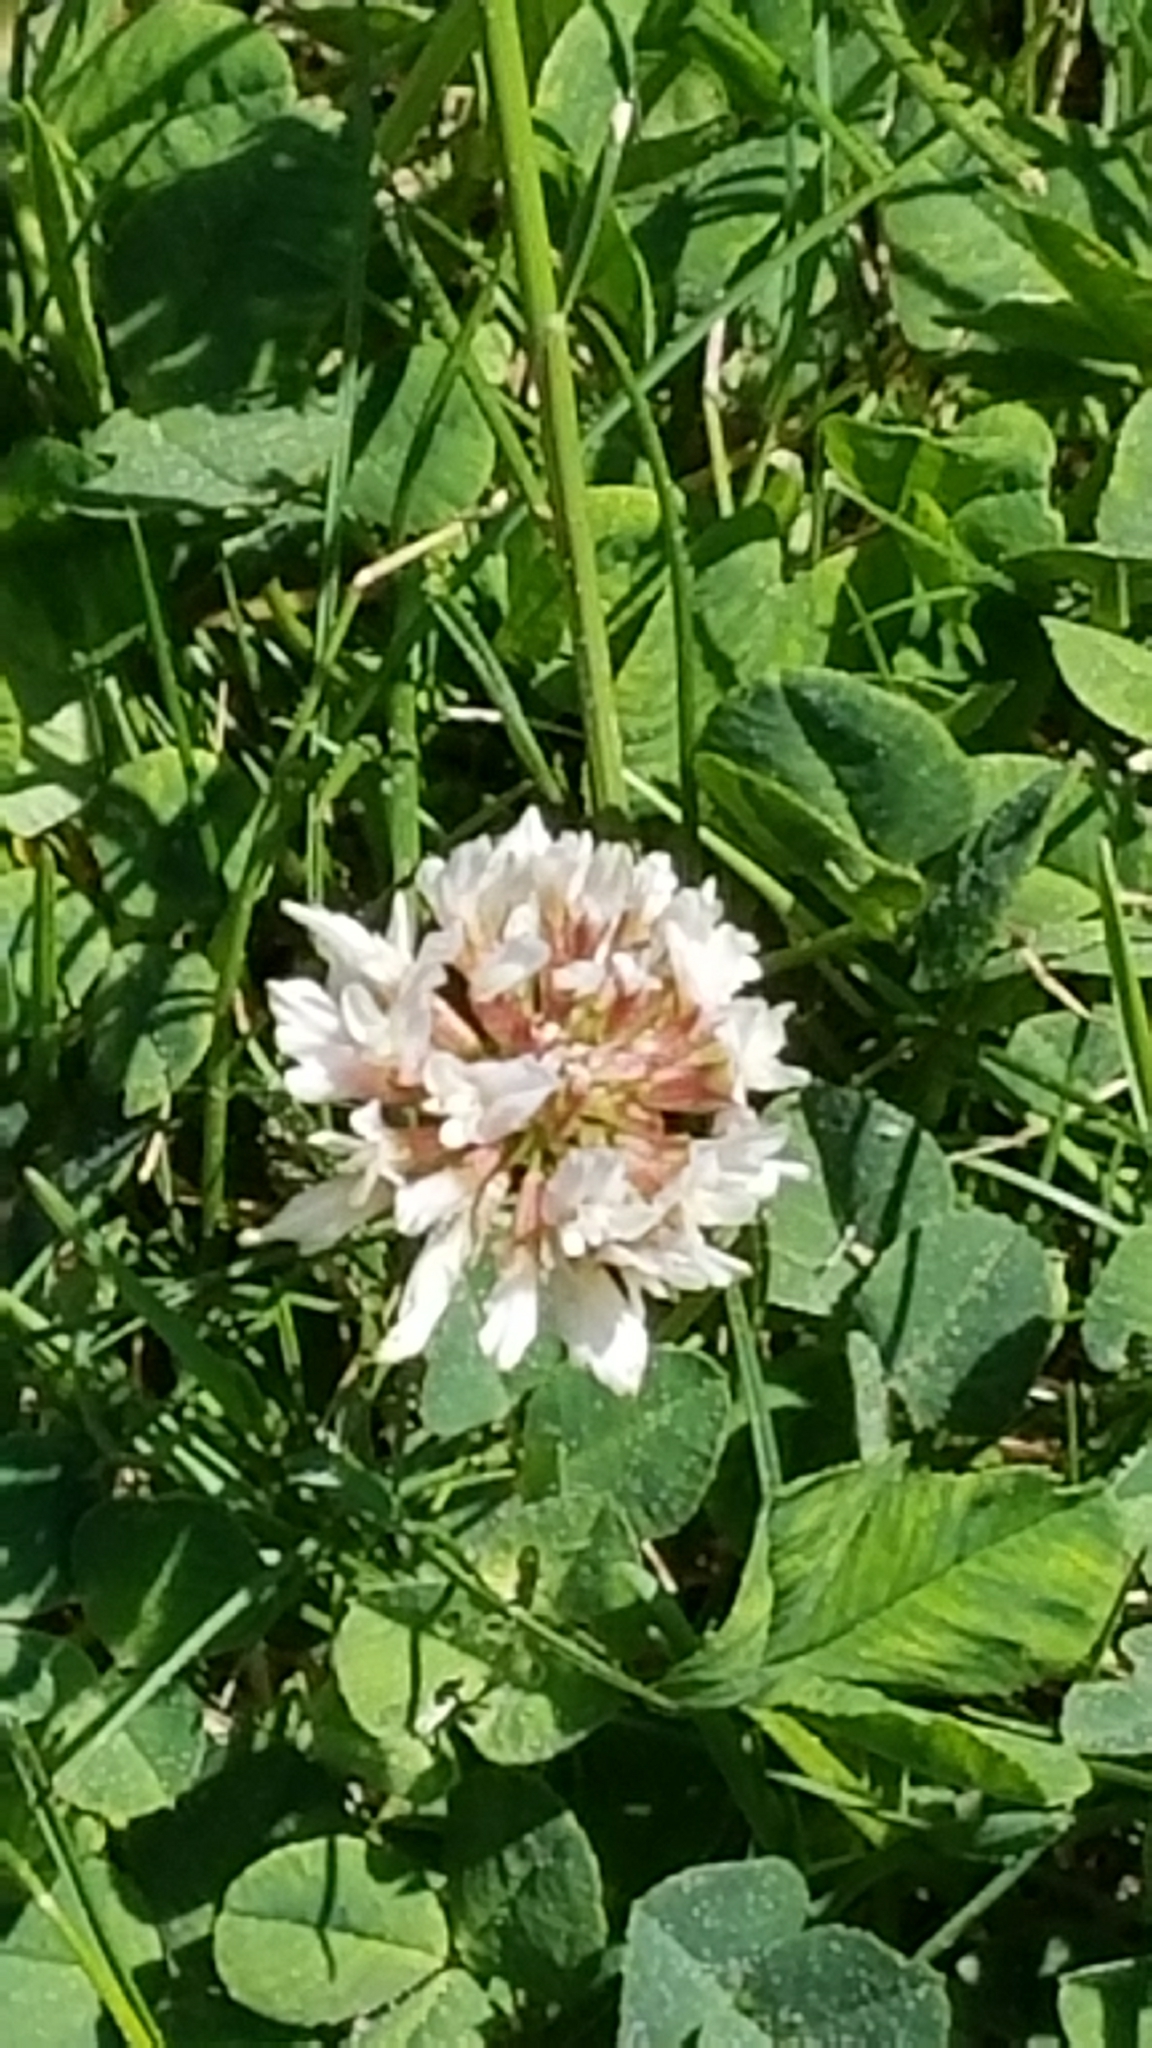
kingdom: Plantae
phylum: Tracheophyta
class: Magnoliopsida
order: Fabales
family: Fabaceae
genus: Trifolium
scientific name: Trifolium repens
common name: White clover
